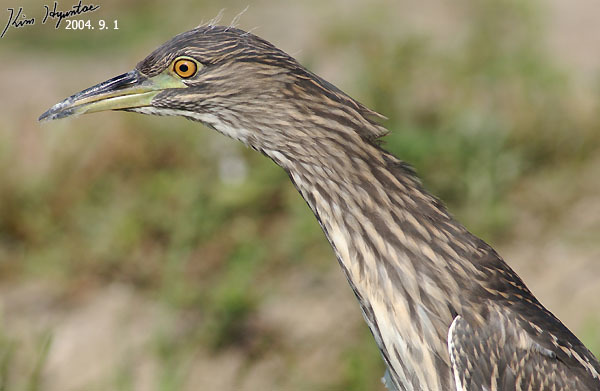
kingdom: Animalia
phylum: Chordata
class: Aves
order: Pelecaniformes
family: Ardeidae
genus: Nycticorax
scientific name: Nycticorax nycticorax
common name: Black-crowned night heron
